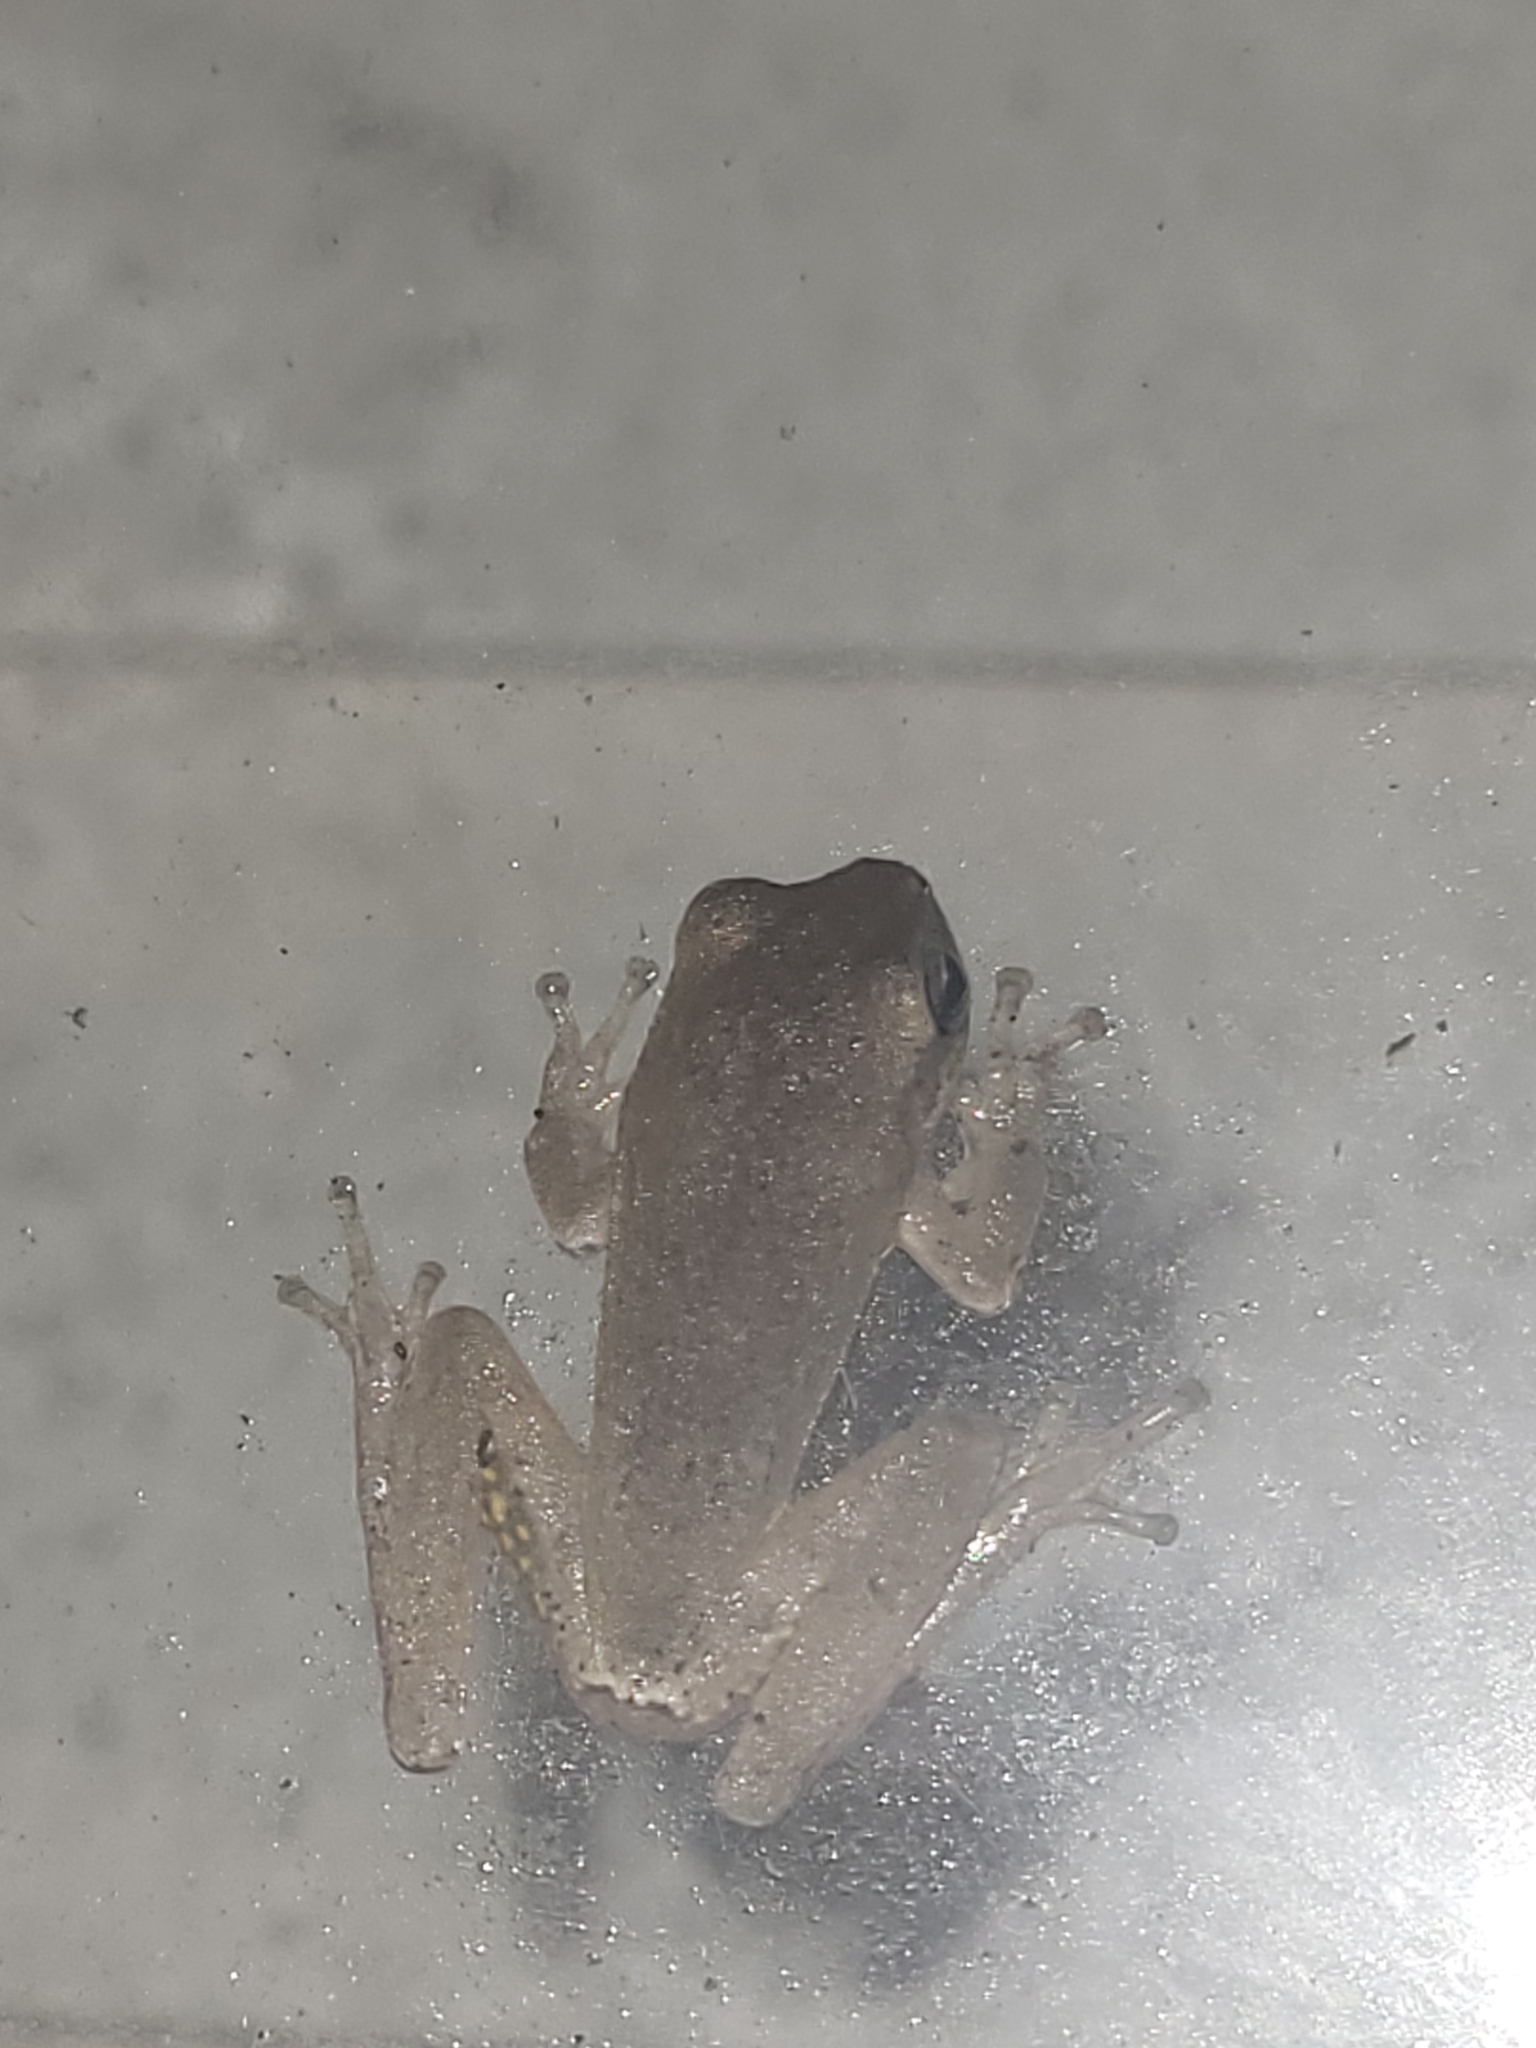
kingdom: Animalia
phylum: Chordata
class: Amphibia
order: Anura
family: Hylidae
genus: Hyla
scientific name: Hyla femoralis
